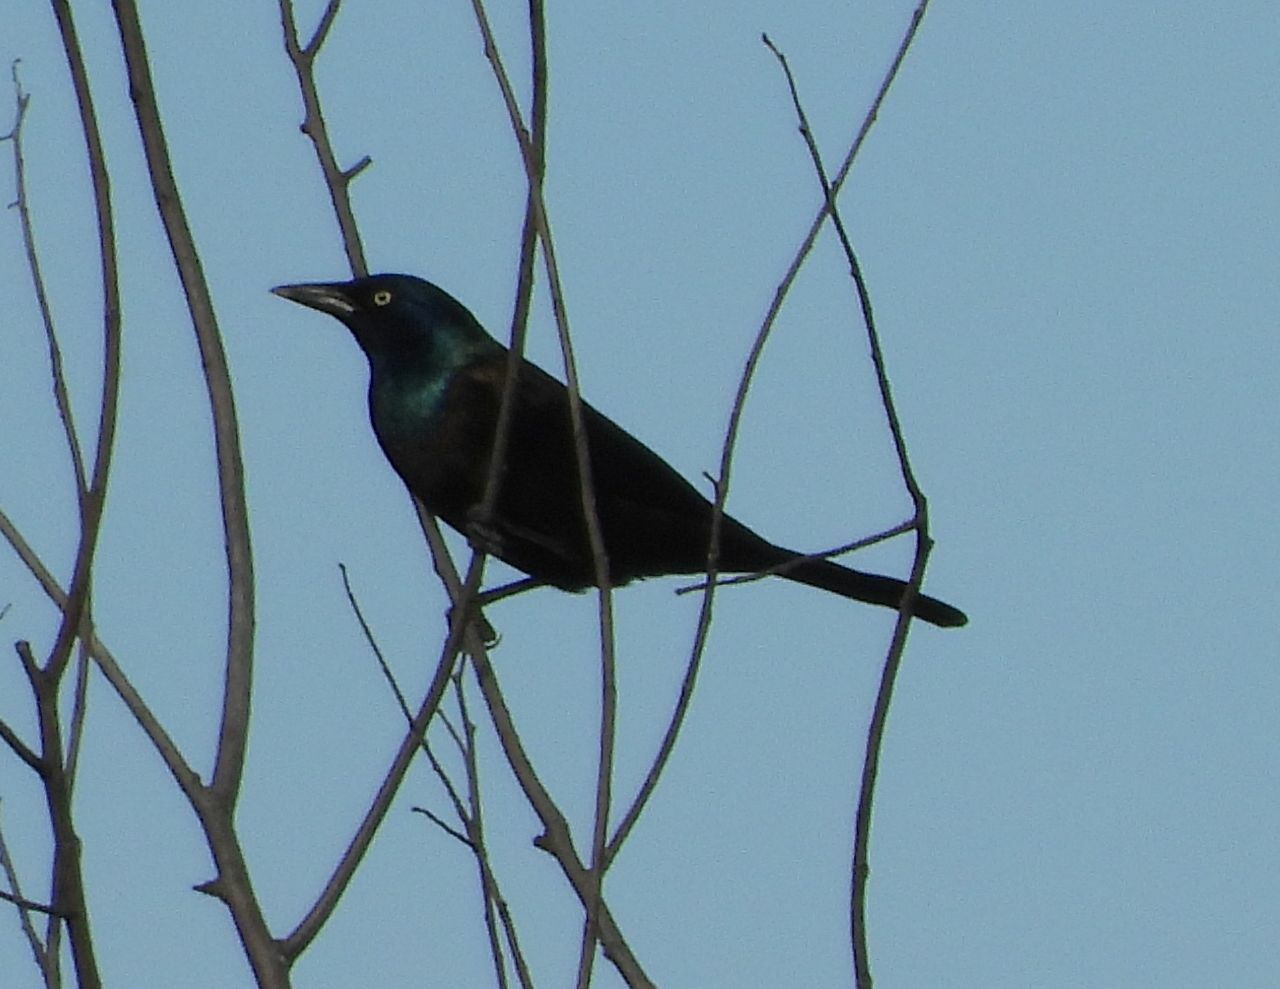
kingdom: Animalia
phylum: Chordata
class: Aves
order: Passeriformes
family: Icteridae
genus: Quiscalus
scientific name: Quiscalus quiscula
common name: Common grackle
